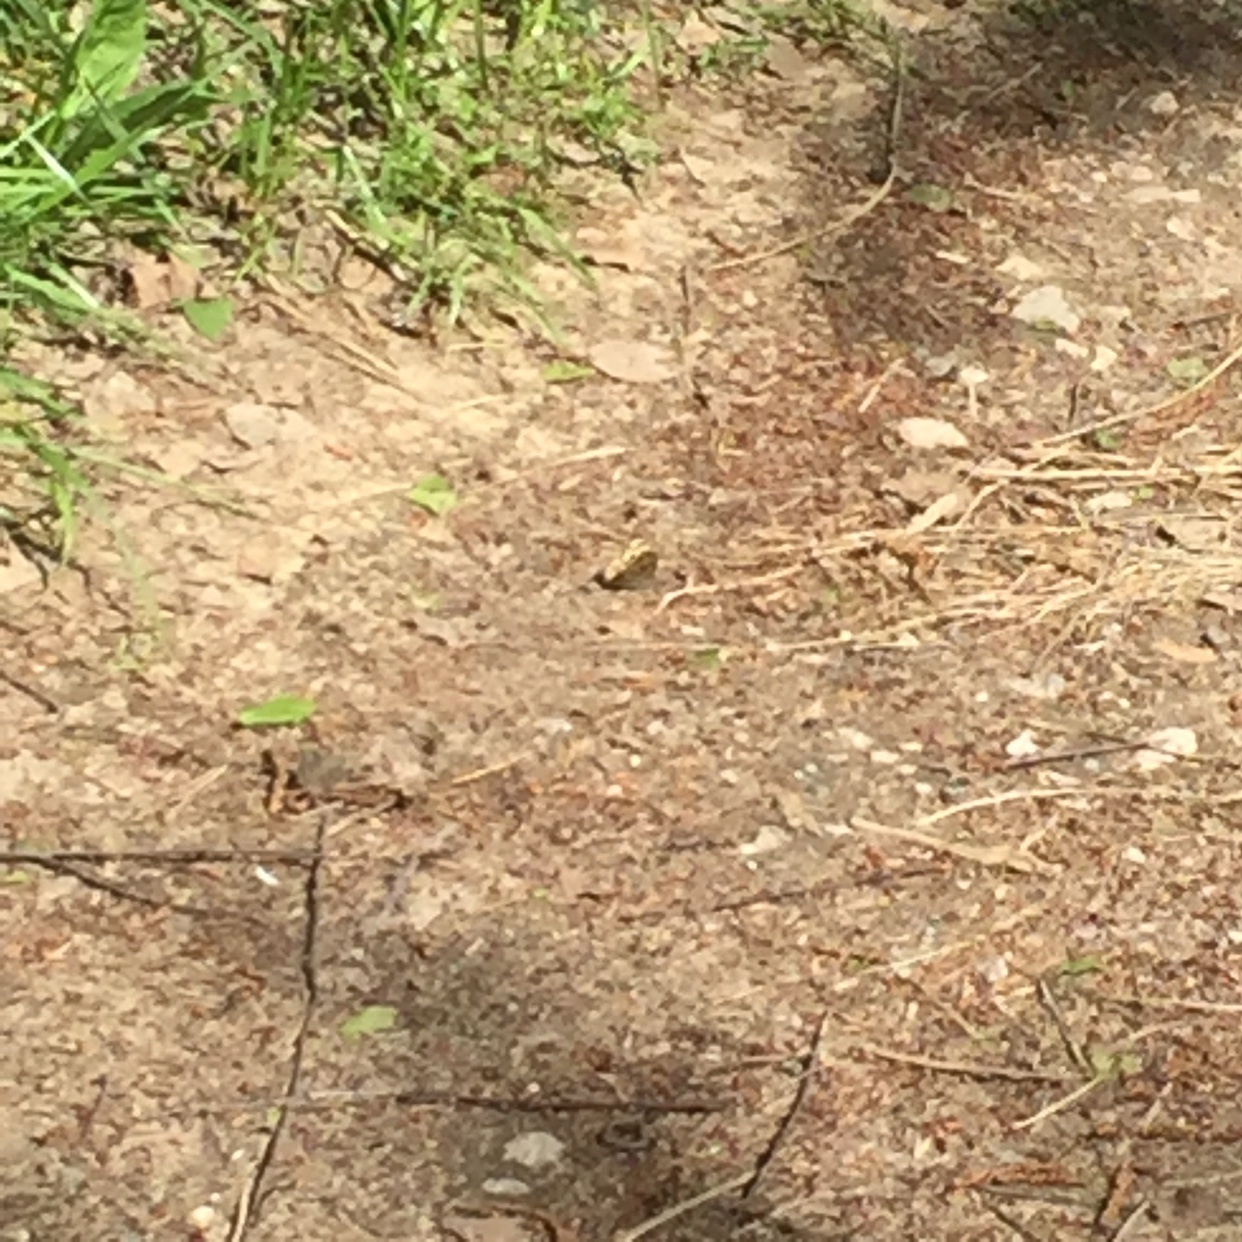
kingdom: Animalia
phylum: Arthropoda
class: Insecta
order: Lepidoptera
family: Nymphalidae
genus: Pararge
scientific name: Pararge aegeria
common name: Speckled wood
